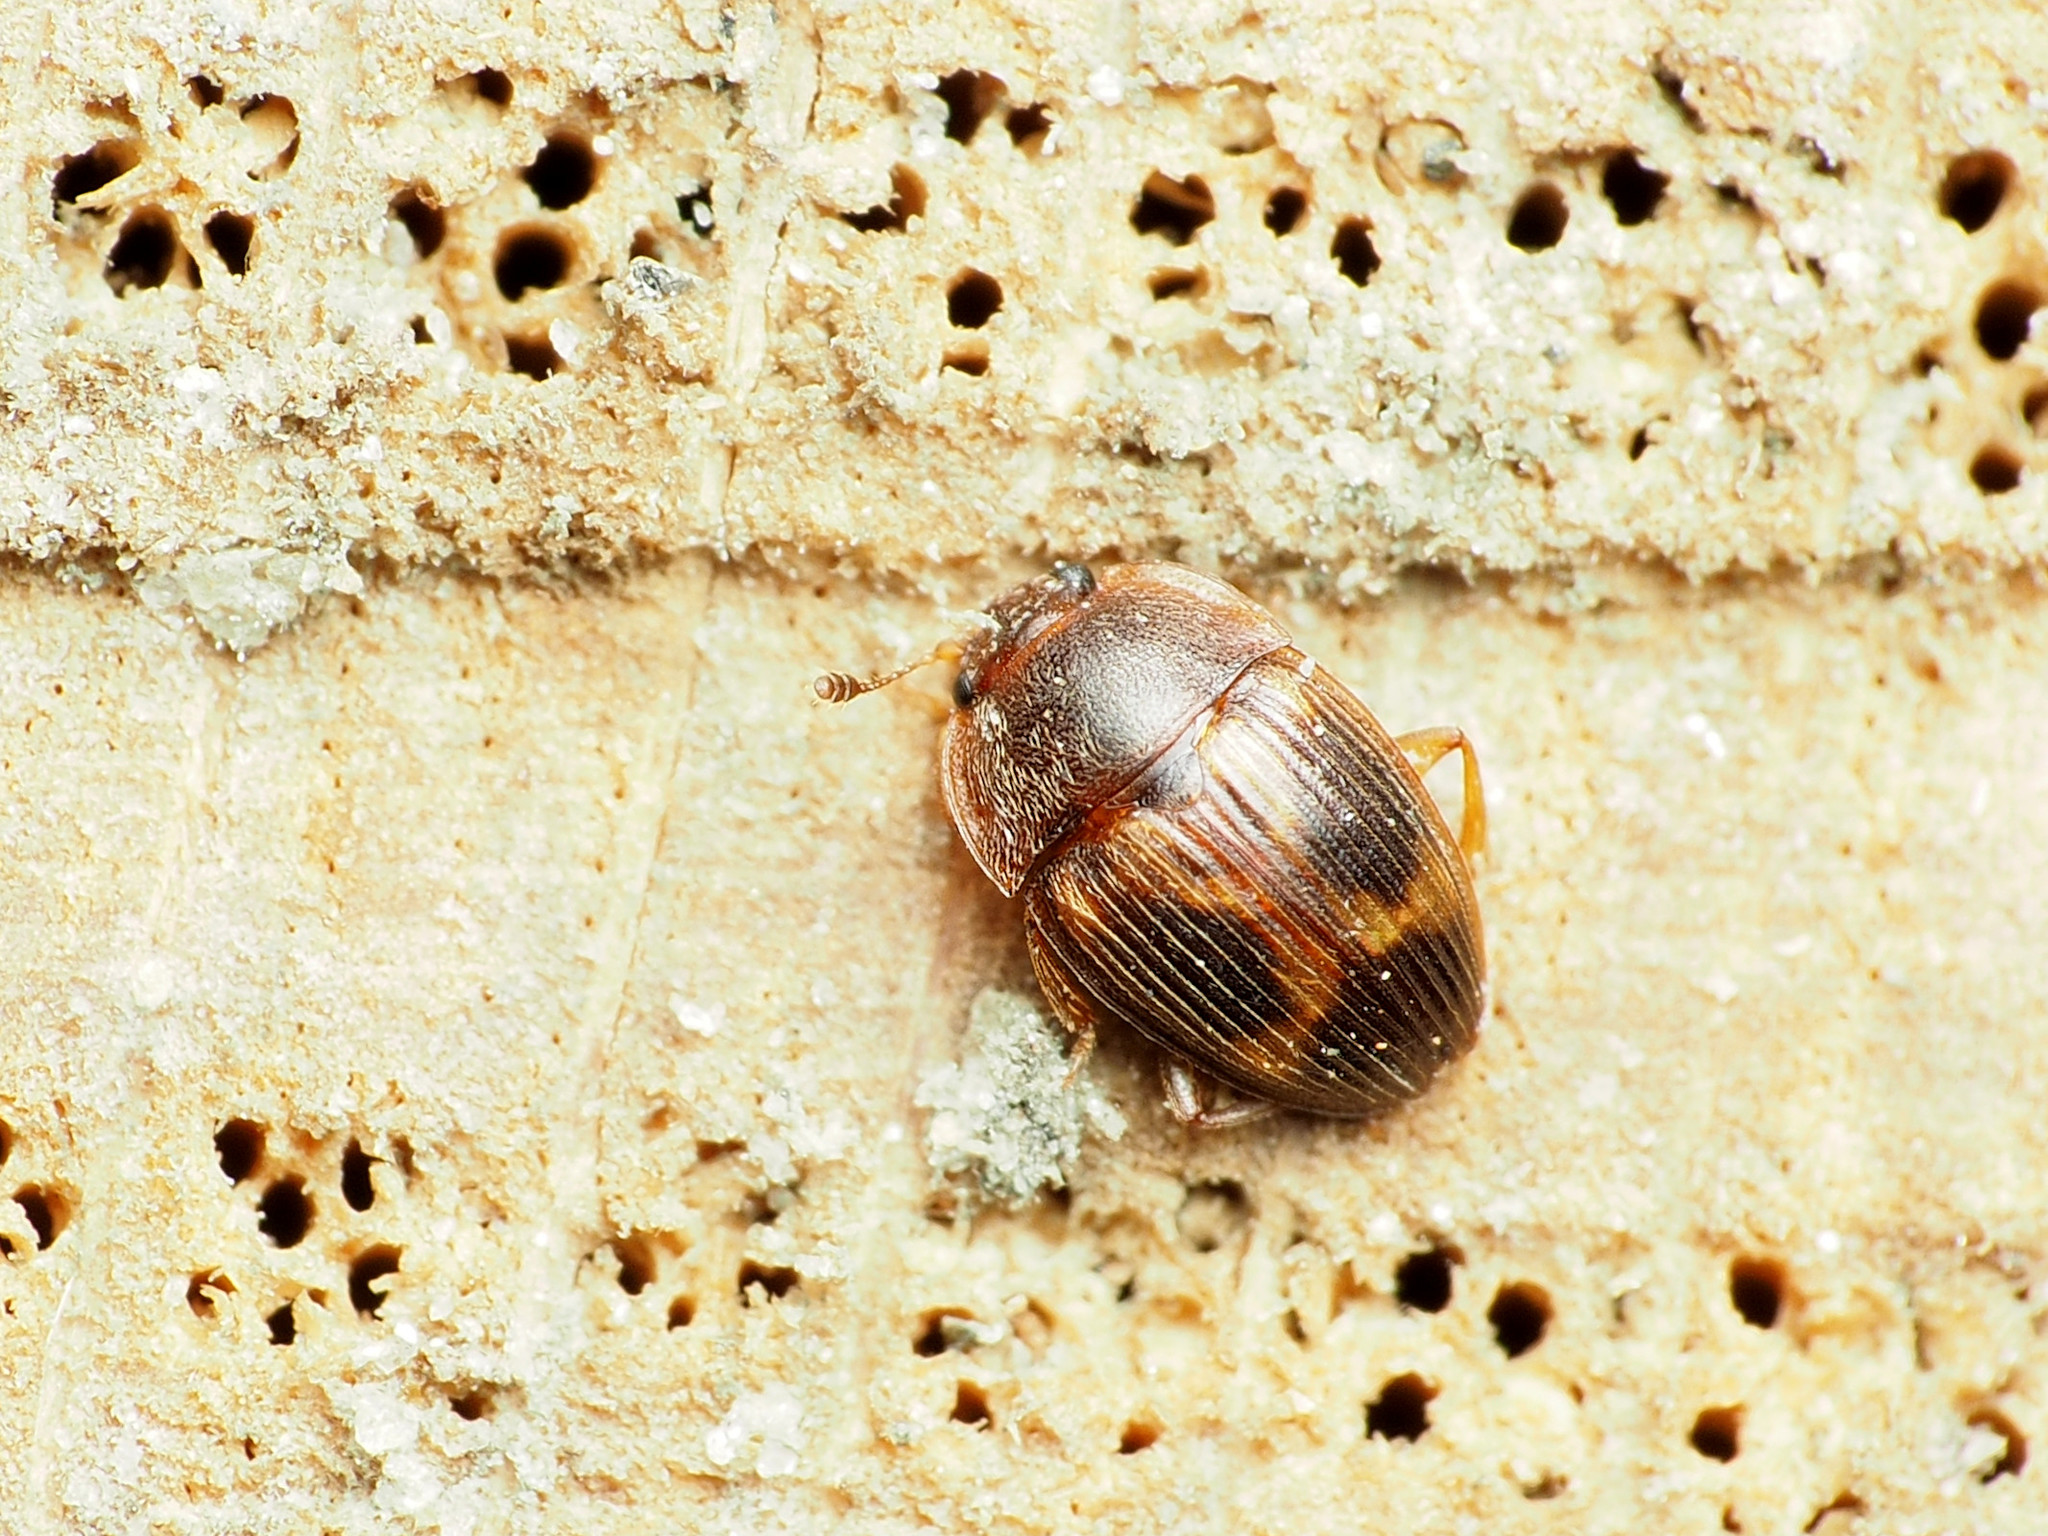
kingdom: Animalia
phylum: Arthropoda
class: Insecta
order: Coleoptera
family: Nitidulidae
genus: Stelidota
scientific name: Stelidota geminata
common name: Strawberry sap beetle
